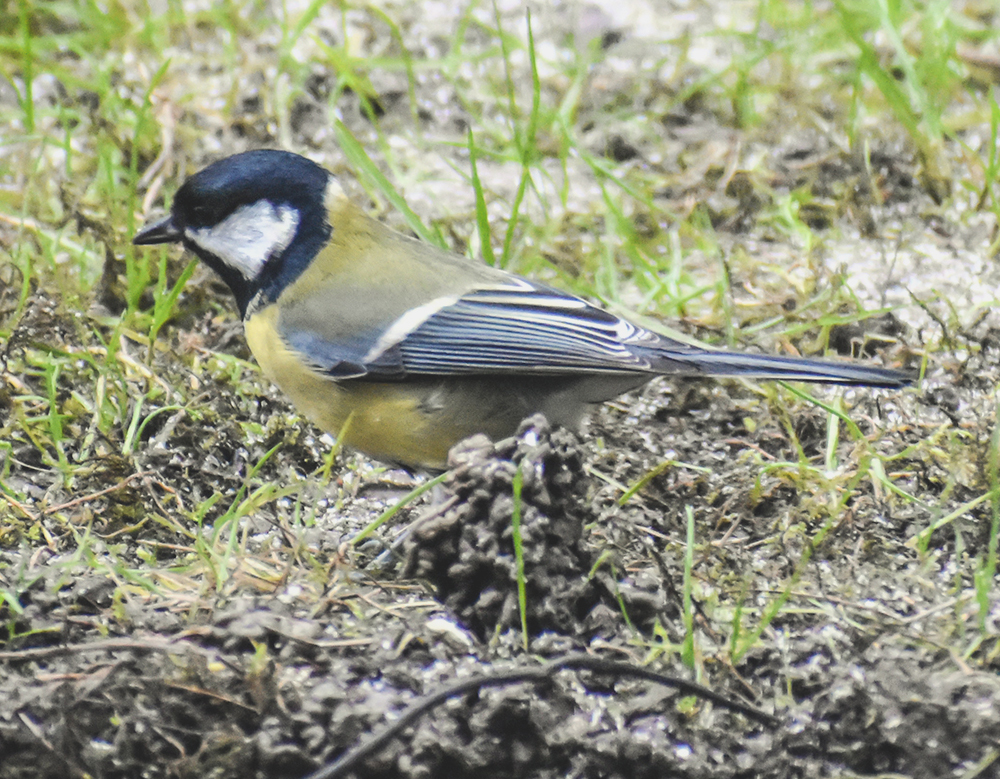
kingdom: Animalia
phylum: Chordata
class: Aves
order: Passeriformes
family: Paridae
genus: Parus
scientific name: Parus major
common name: Great tit
